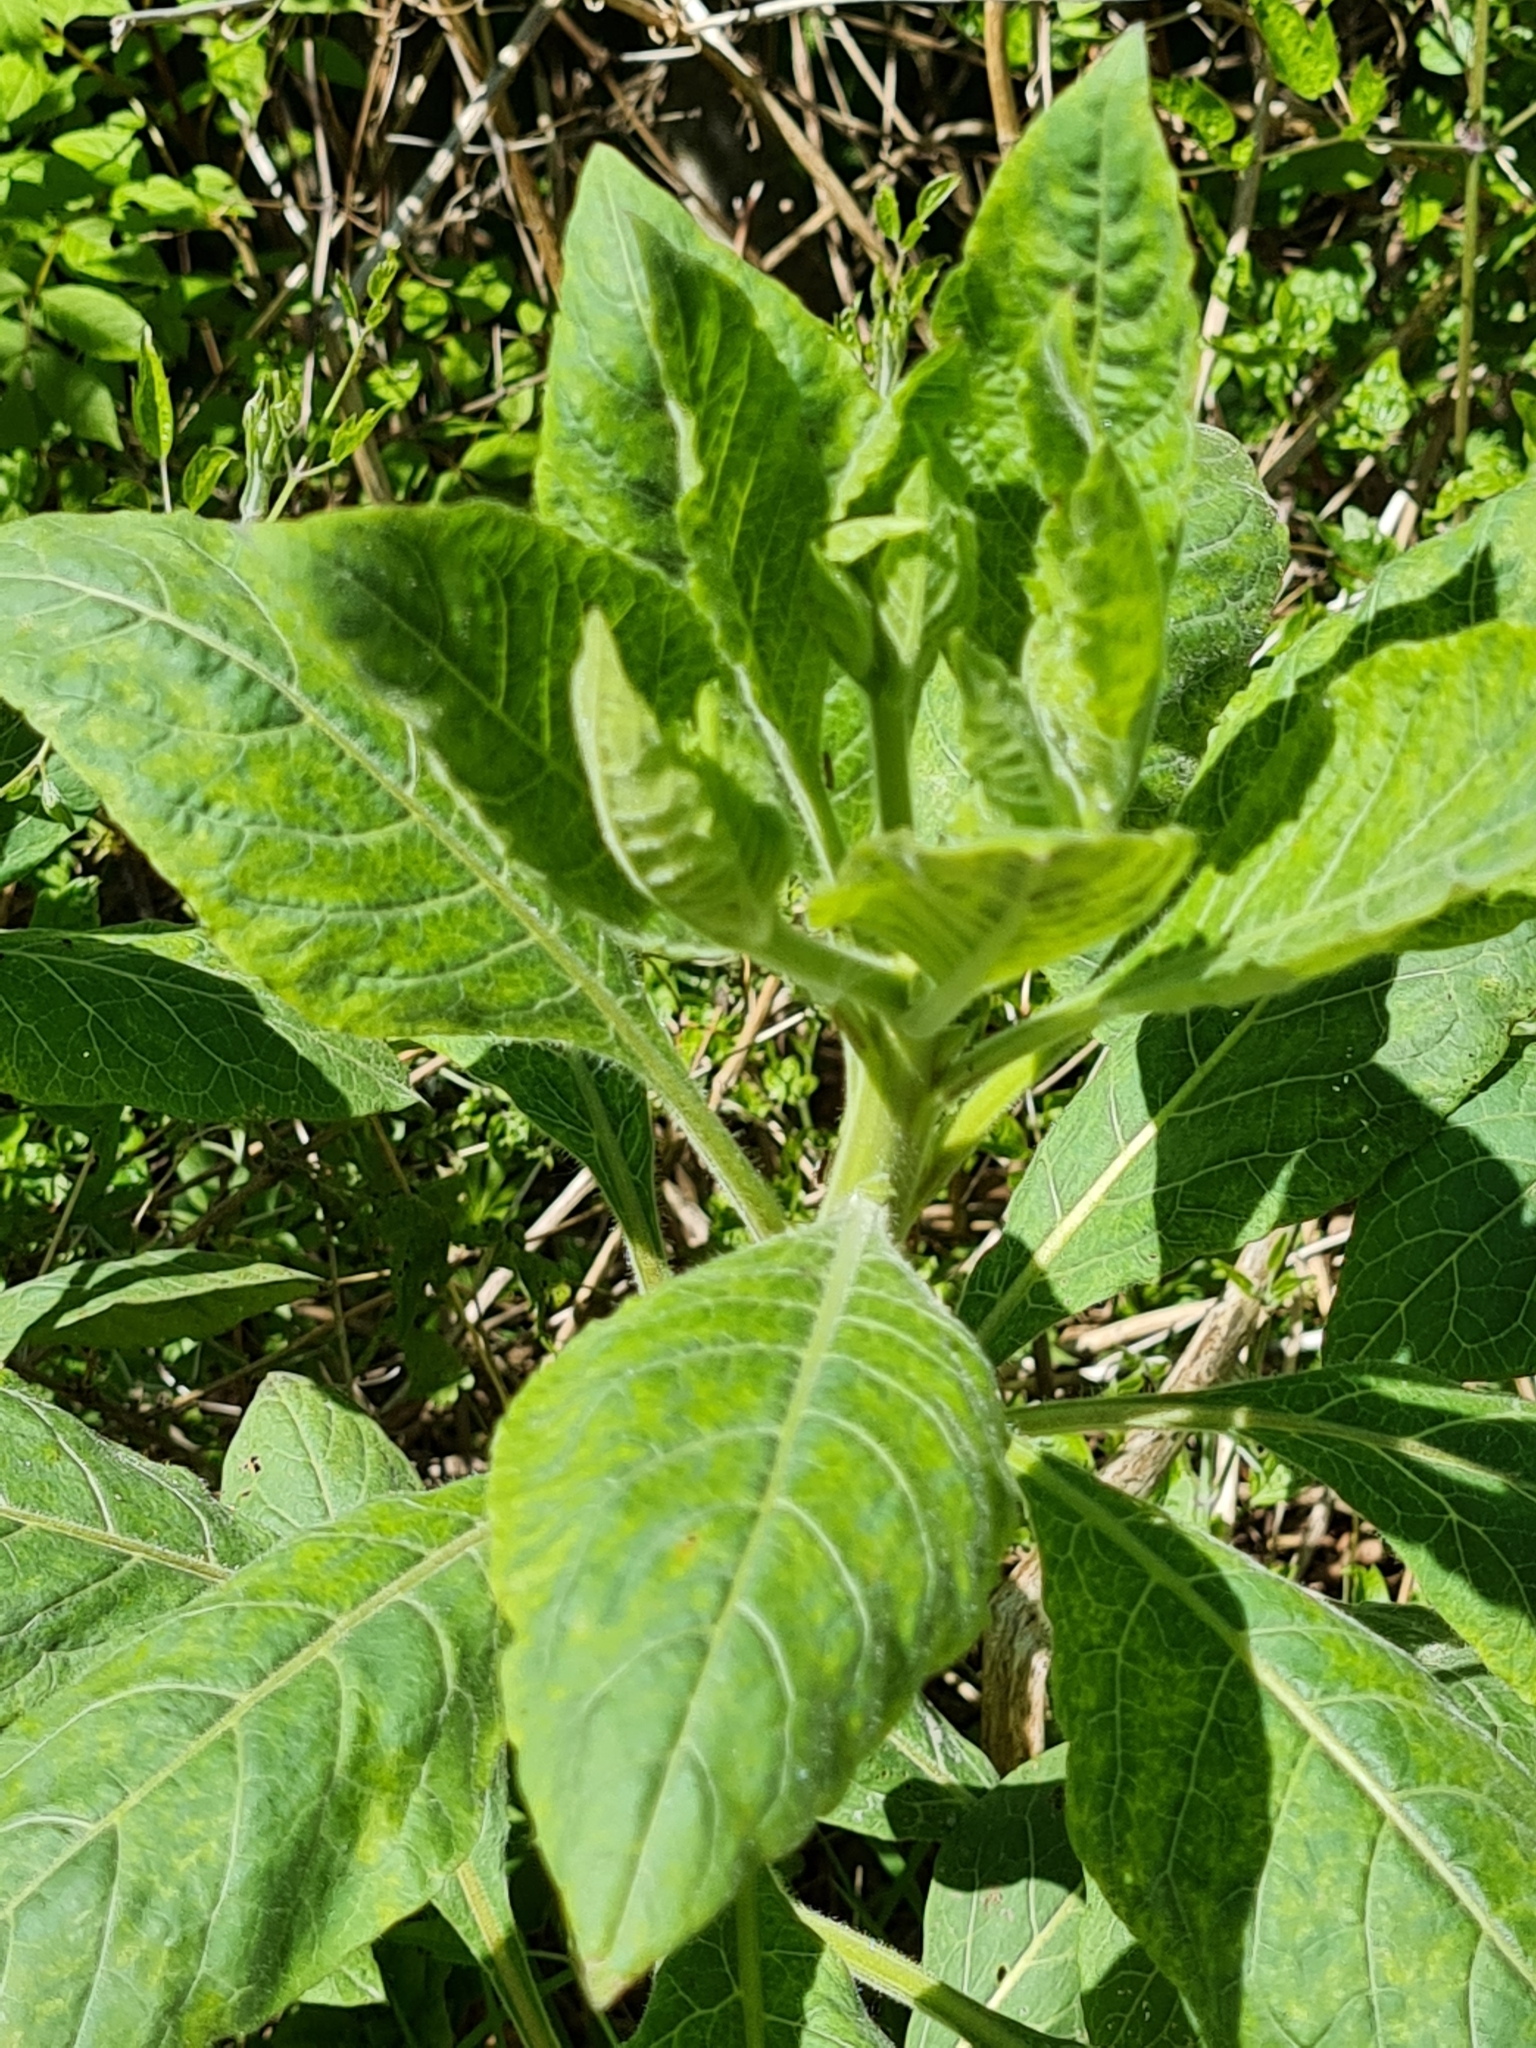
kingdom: Plantae
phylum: Tracheophyta
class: Magnoliopsida
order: Solanales
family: Solanaceae
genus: Atropa
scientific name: Atropa belladonna
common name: Deadly nightshade
